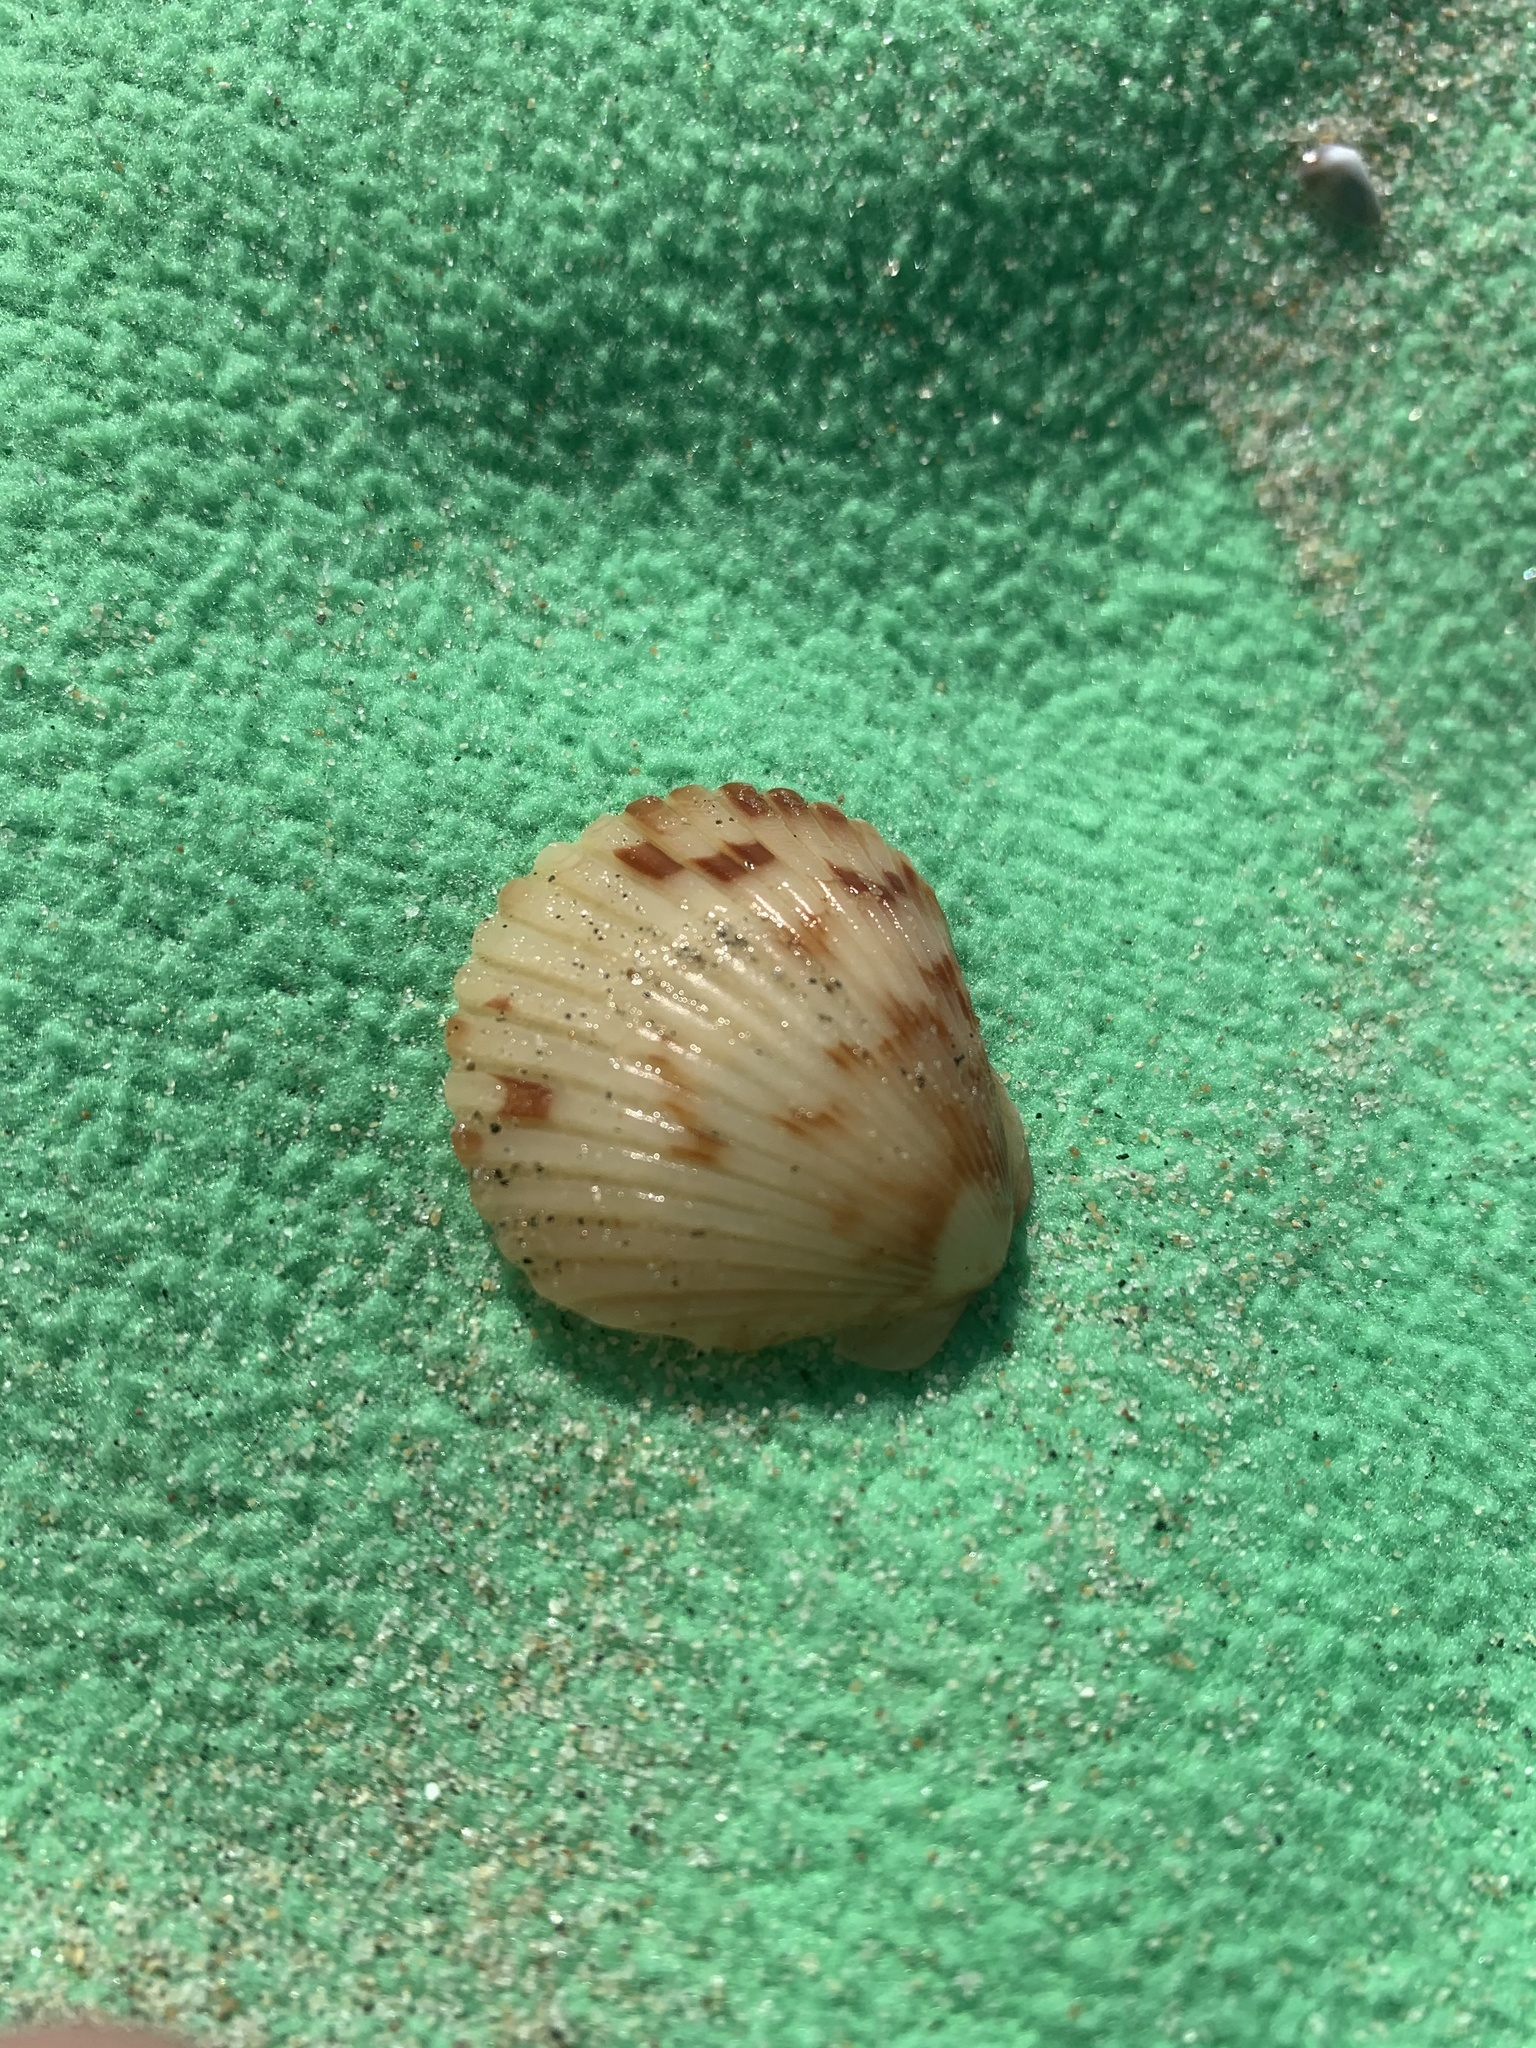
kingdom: Animalia
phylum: Mollusca
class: Bivalvia
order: Pectinida
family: Pectinidae
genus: Argopecten
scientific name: Argopecten ventricosus
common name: Catarina scallop
